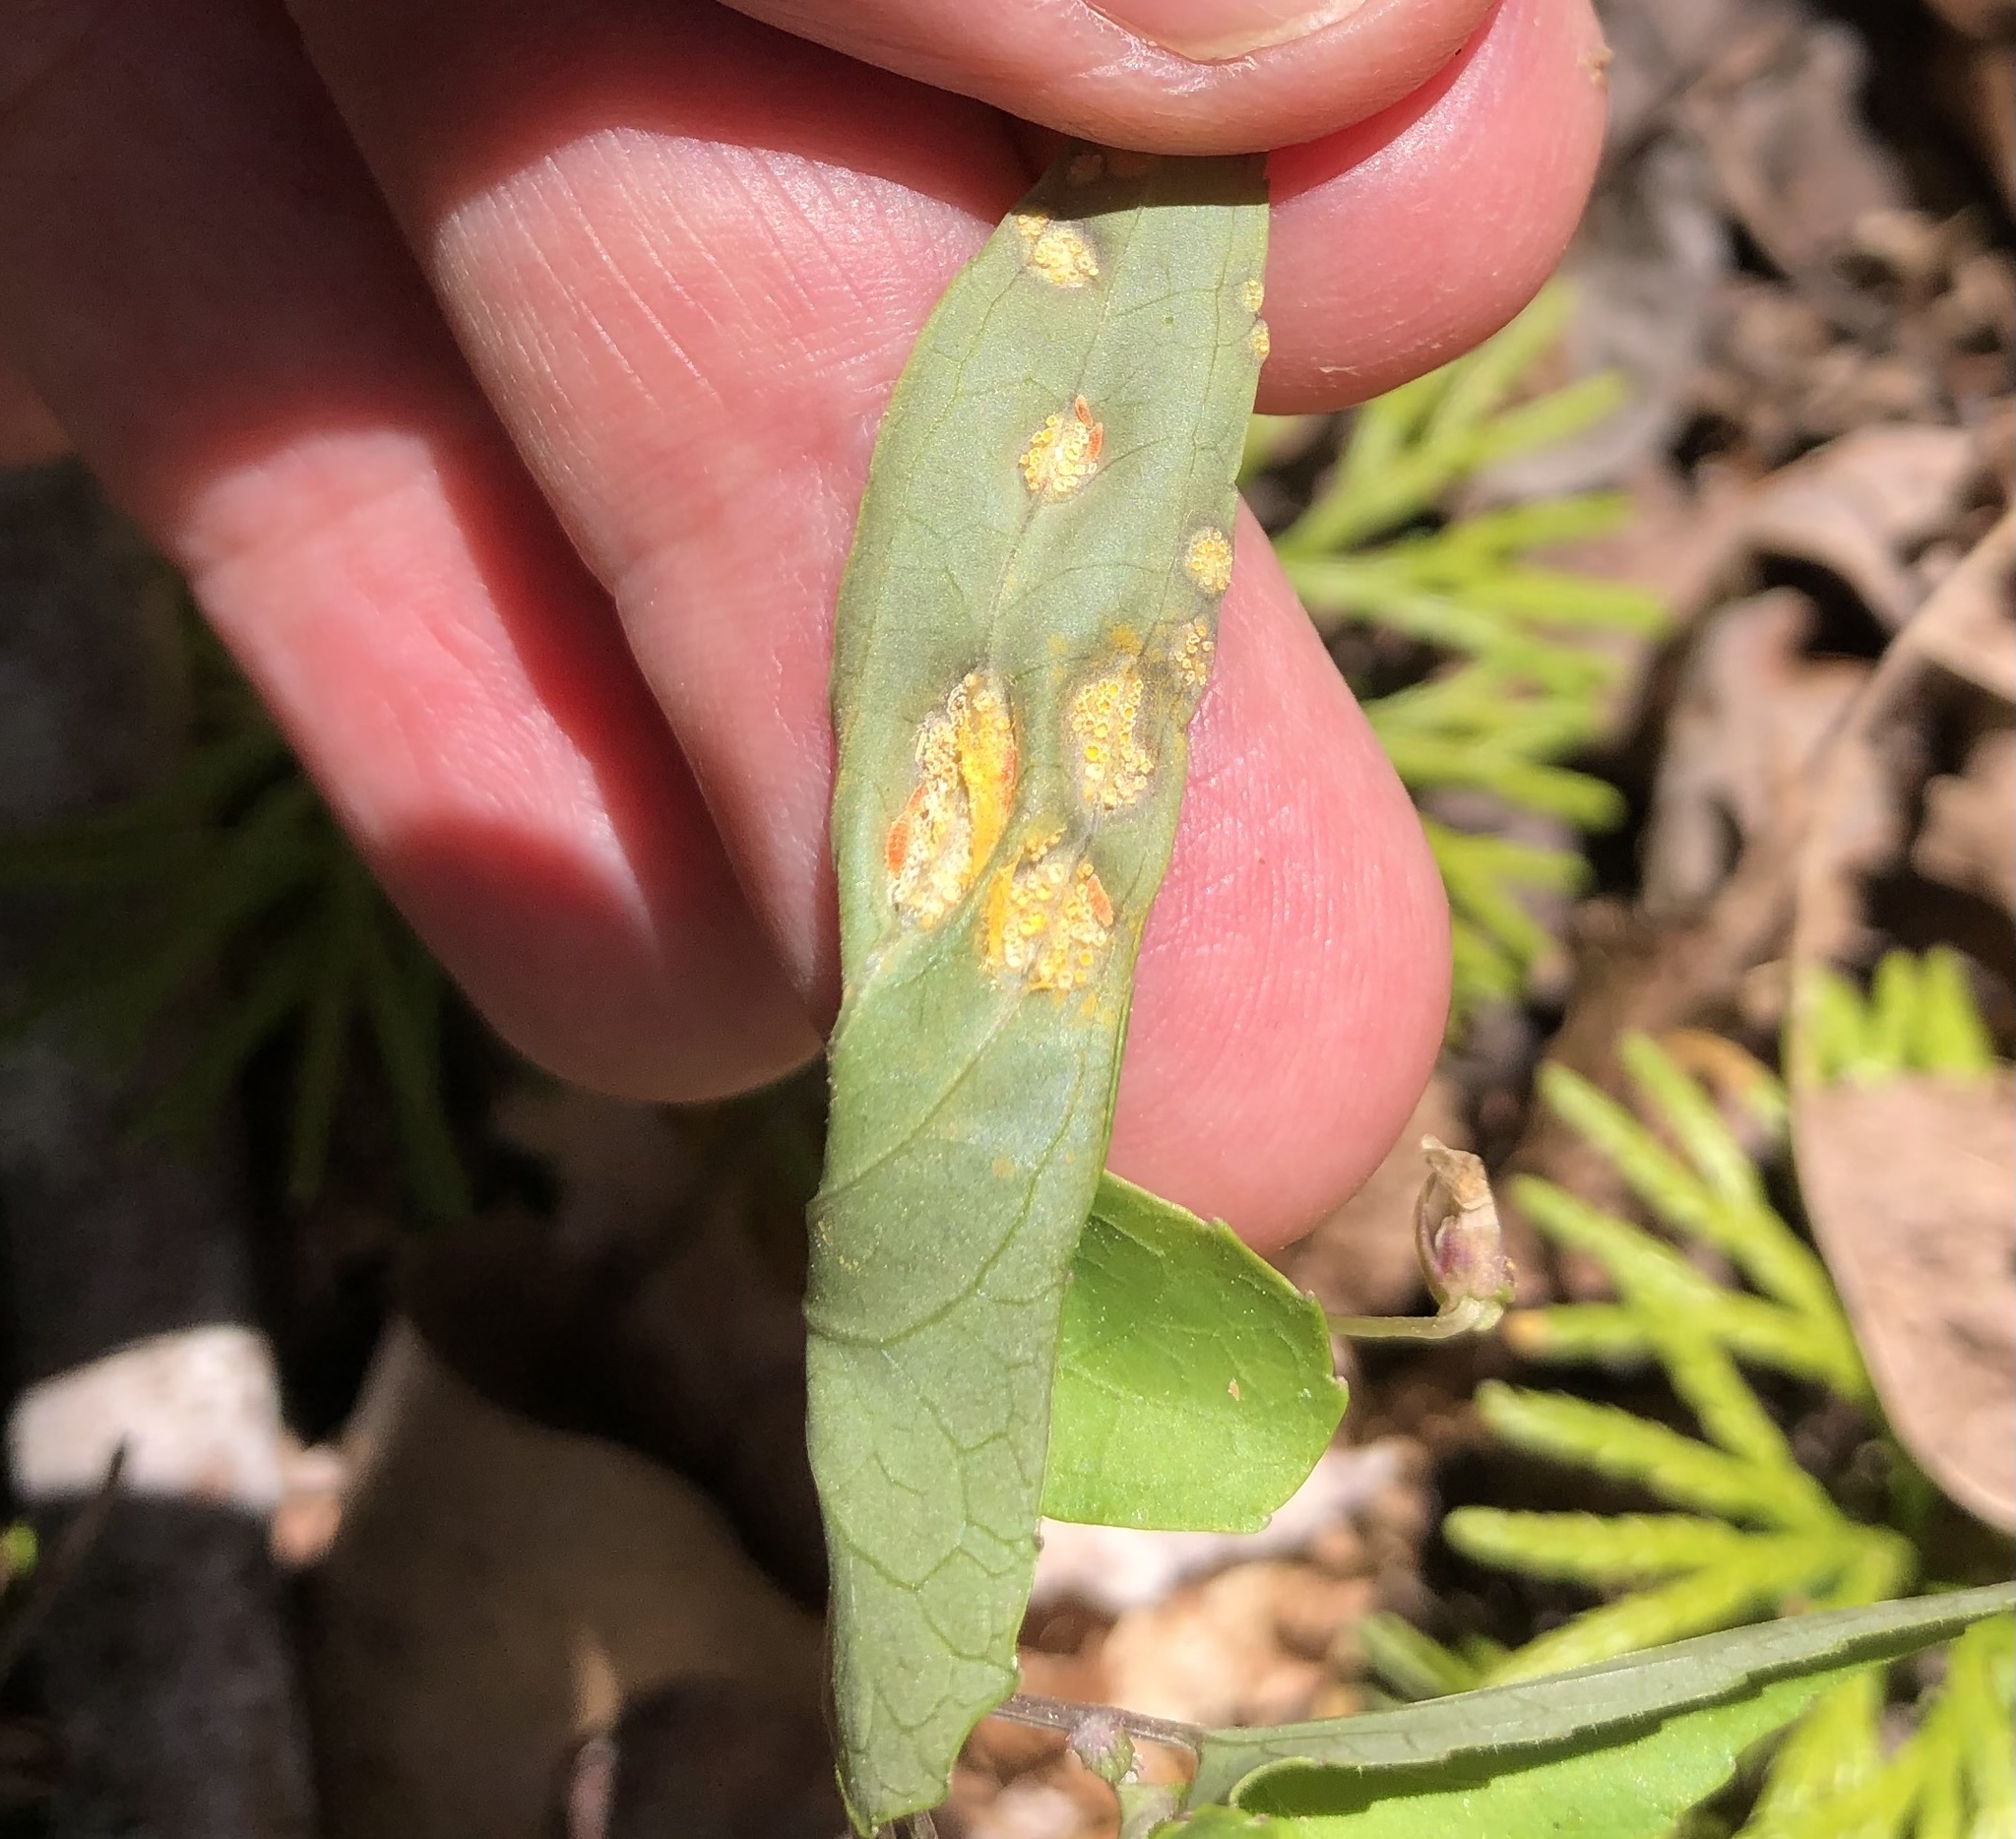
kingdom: Fungi
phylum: Basidiomycota
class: Pucciniomycetes
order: Pucciniales
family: Pucciniaceae
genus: Puccinia
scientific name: Puccinia violae
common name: Violet rust
